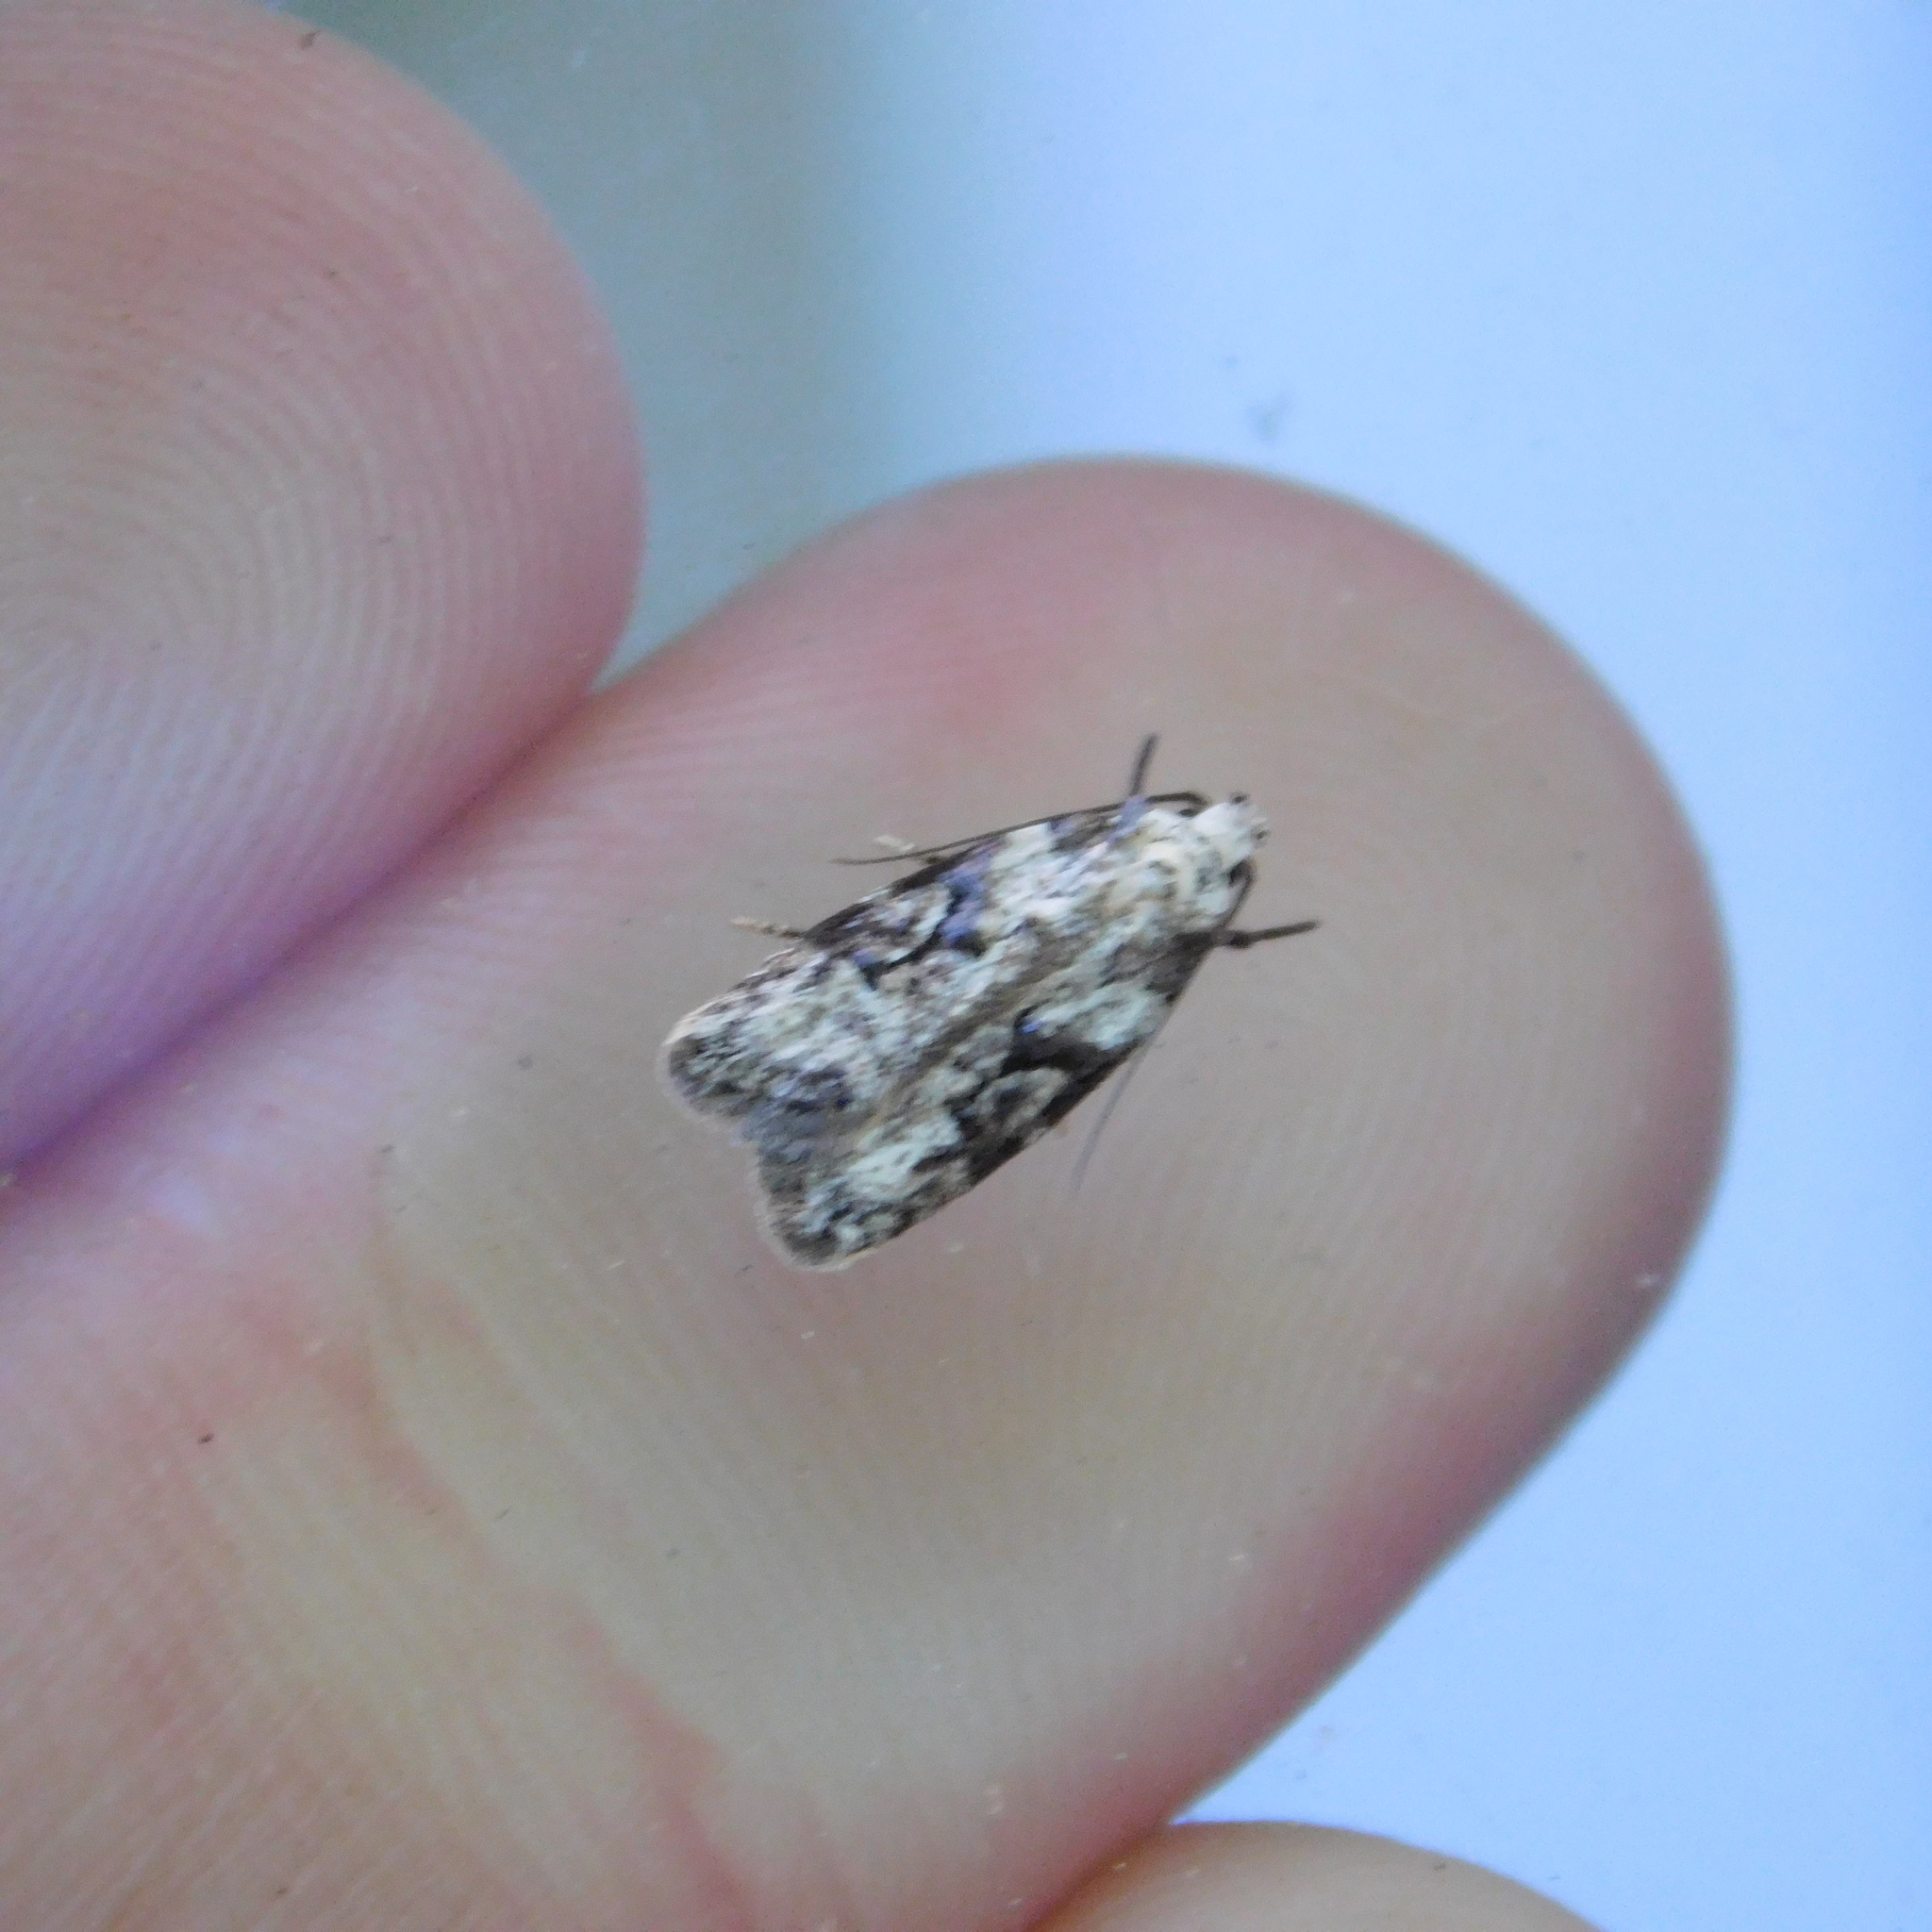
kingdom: Animalia
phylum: Arthropoda
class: Insecta
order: Lepidoptera
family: Oecophoridae
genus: Izatha
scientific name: Izatha mesoschista
